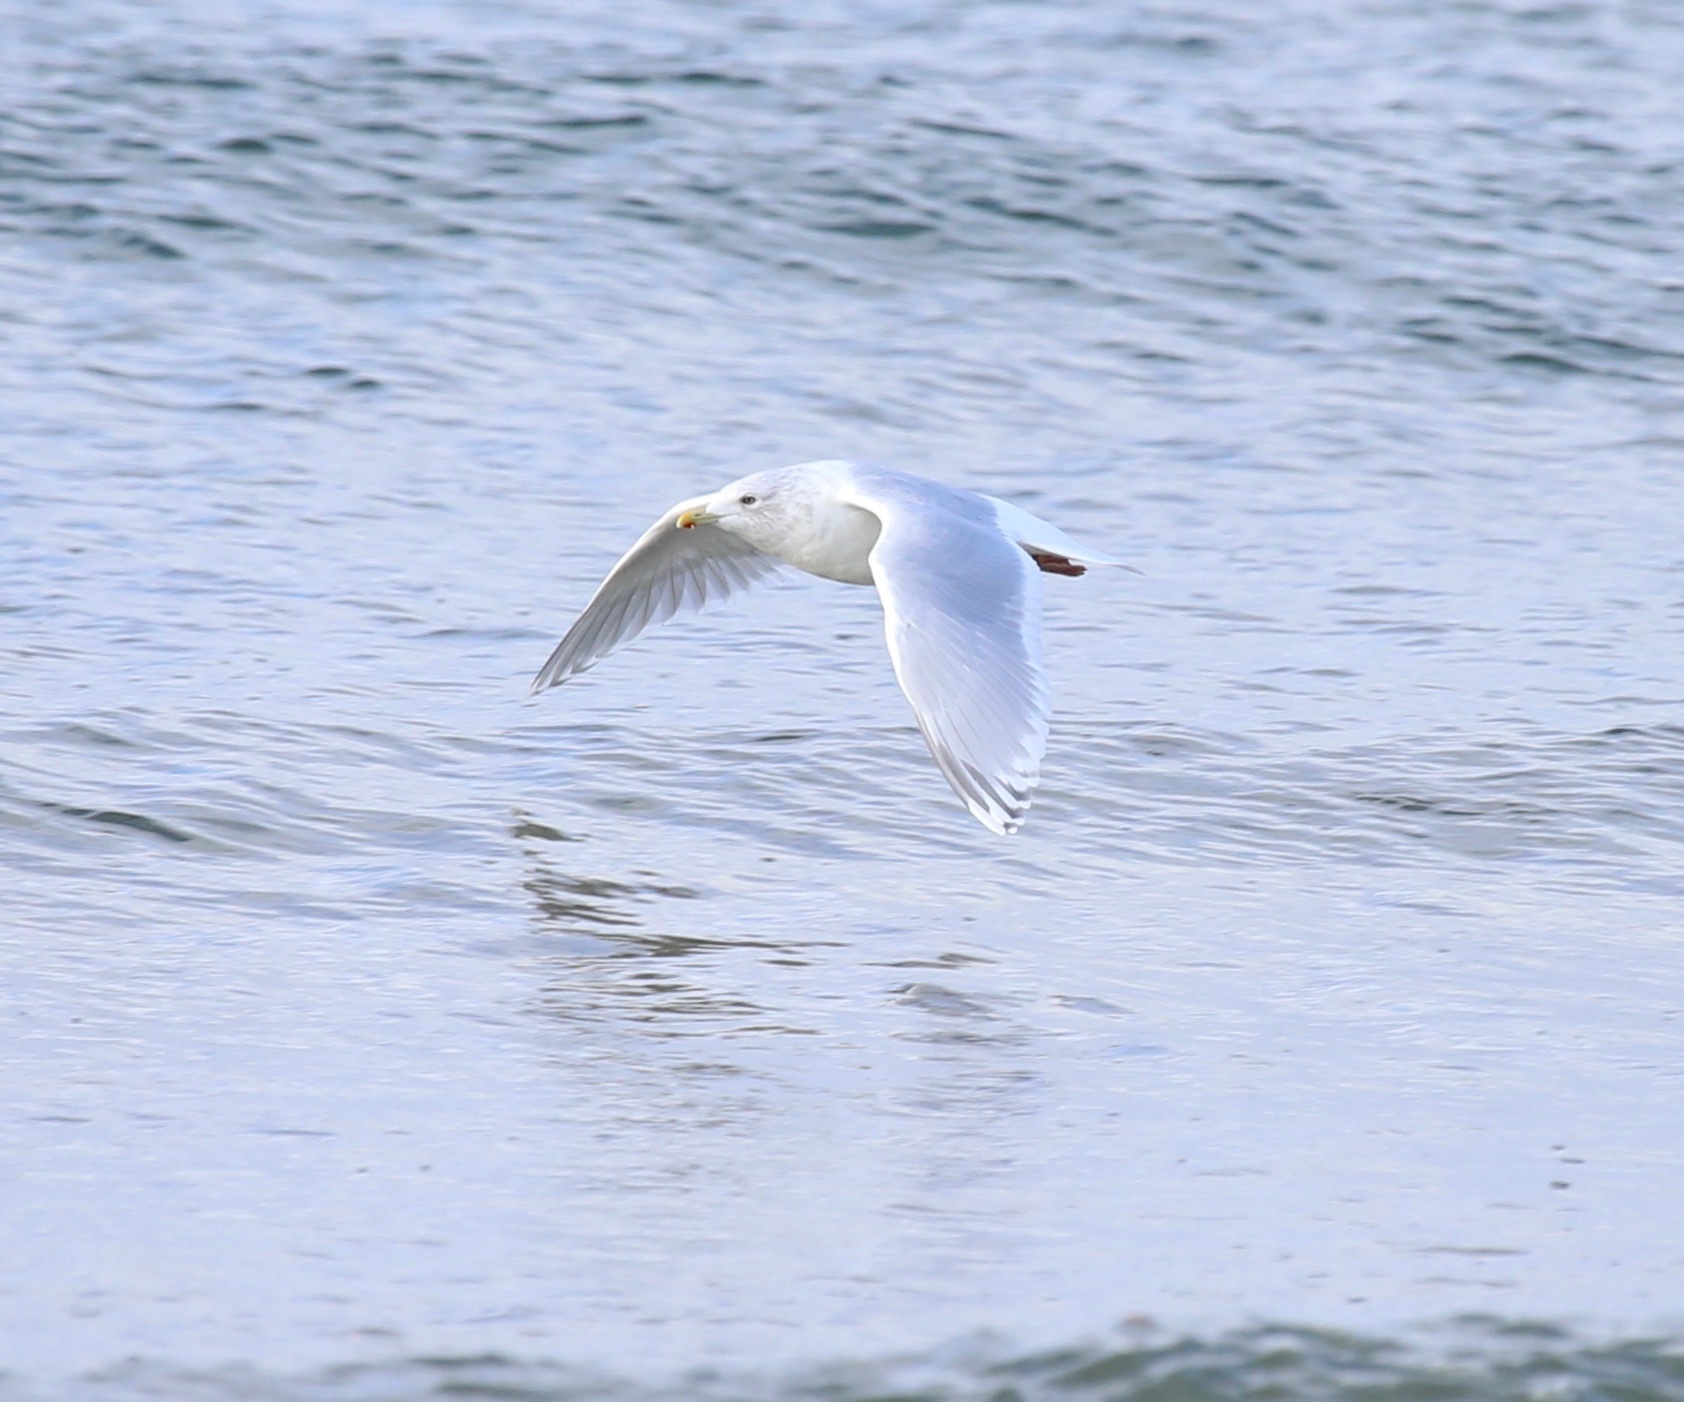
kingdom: Animalia
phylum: Chordata
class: Aves
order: Charadriiformes
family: Laridae
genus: Larus
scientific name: Larus glaucoides
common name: Iceland gull
